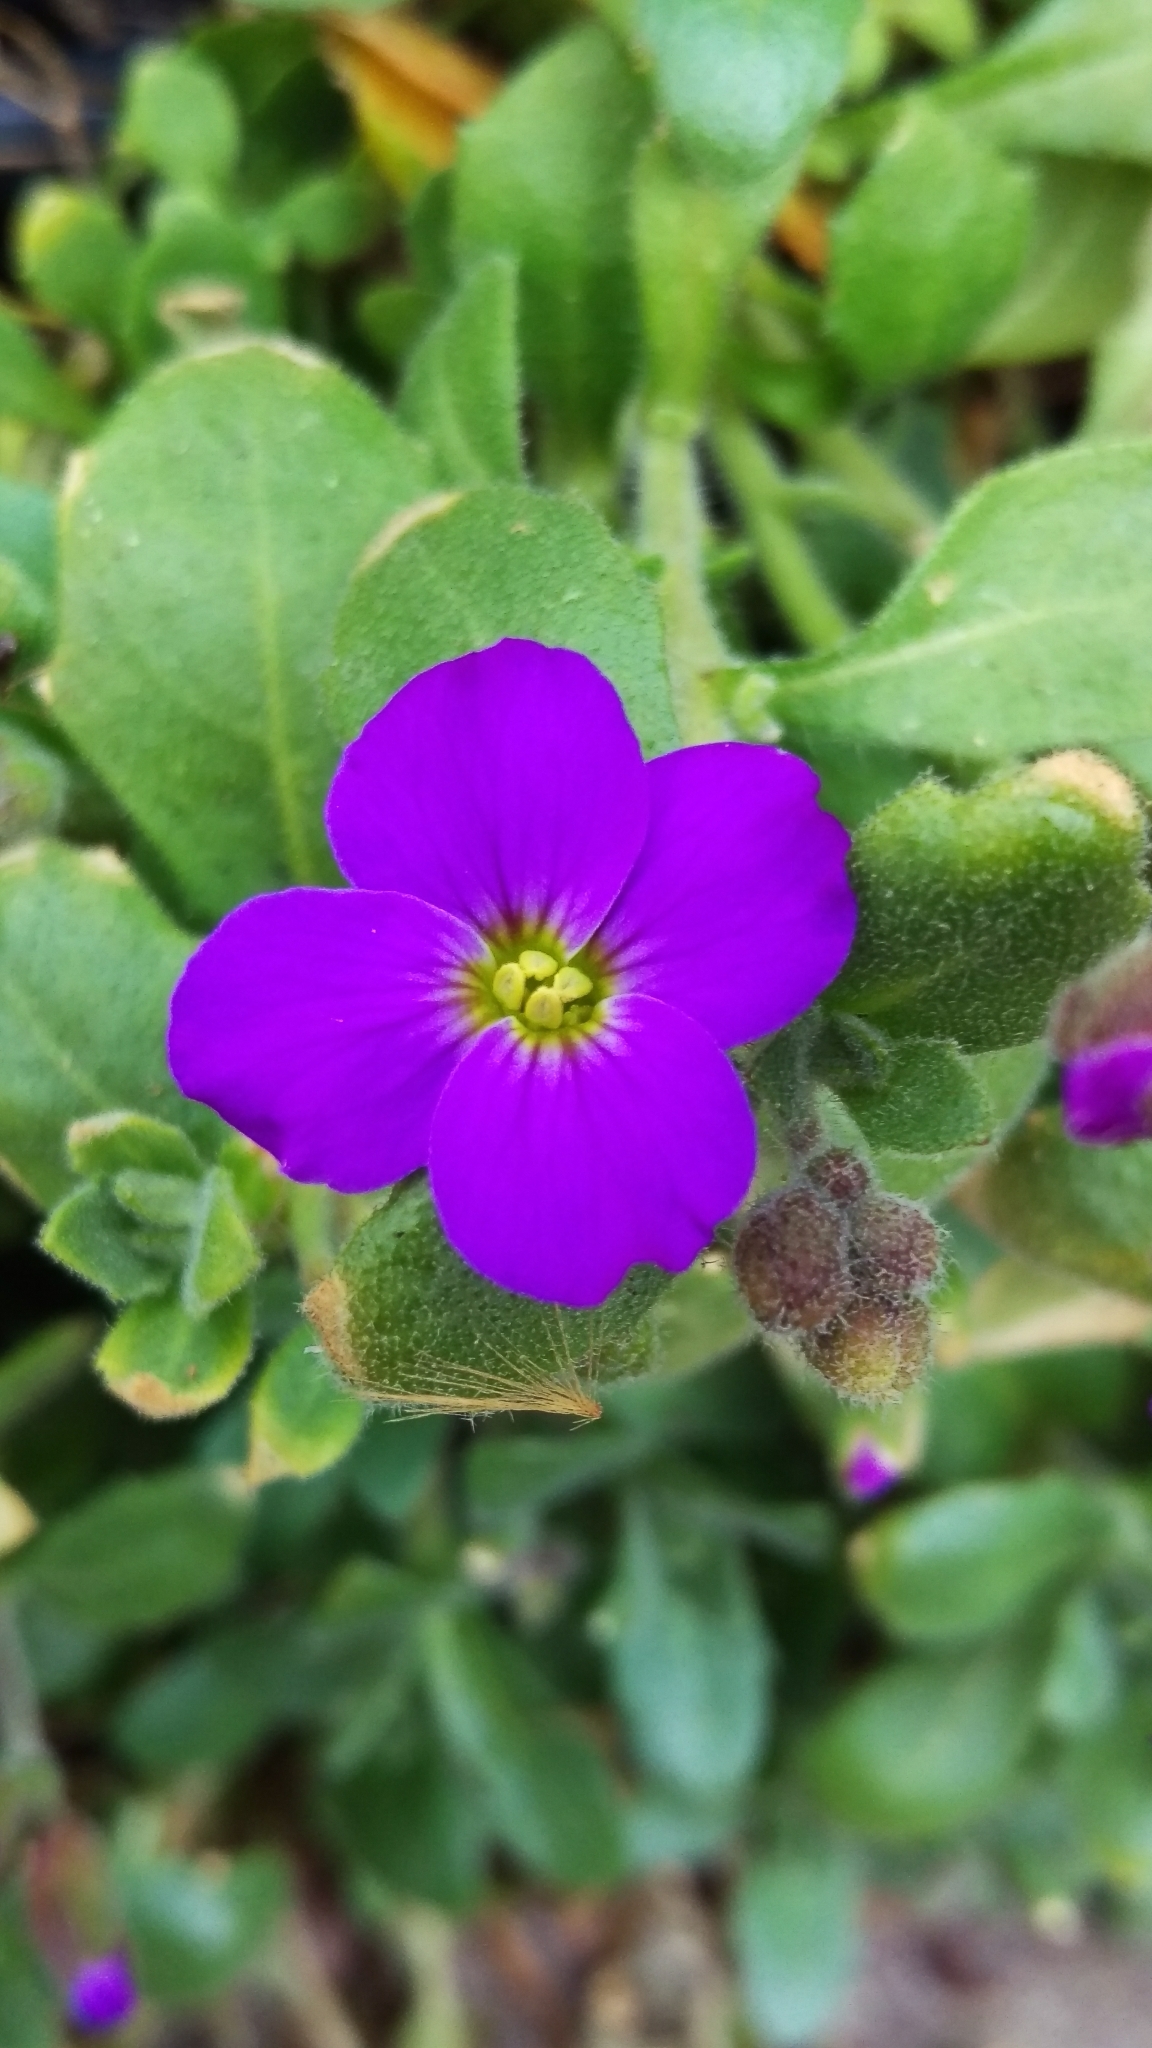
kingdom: Plantae
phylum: Tracheophyta
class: Magnoliopsida
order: Brassicales
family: Brassicaceae
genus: Aubrieta
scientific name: Aubrieta deltoidea
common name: Aubretia
